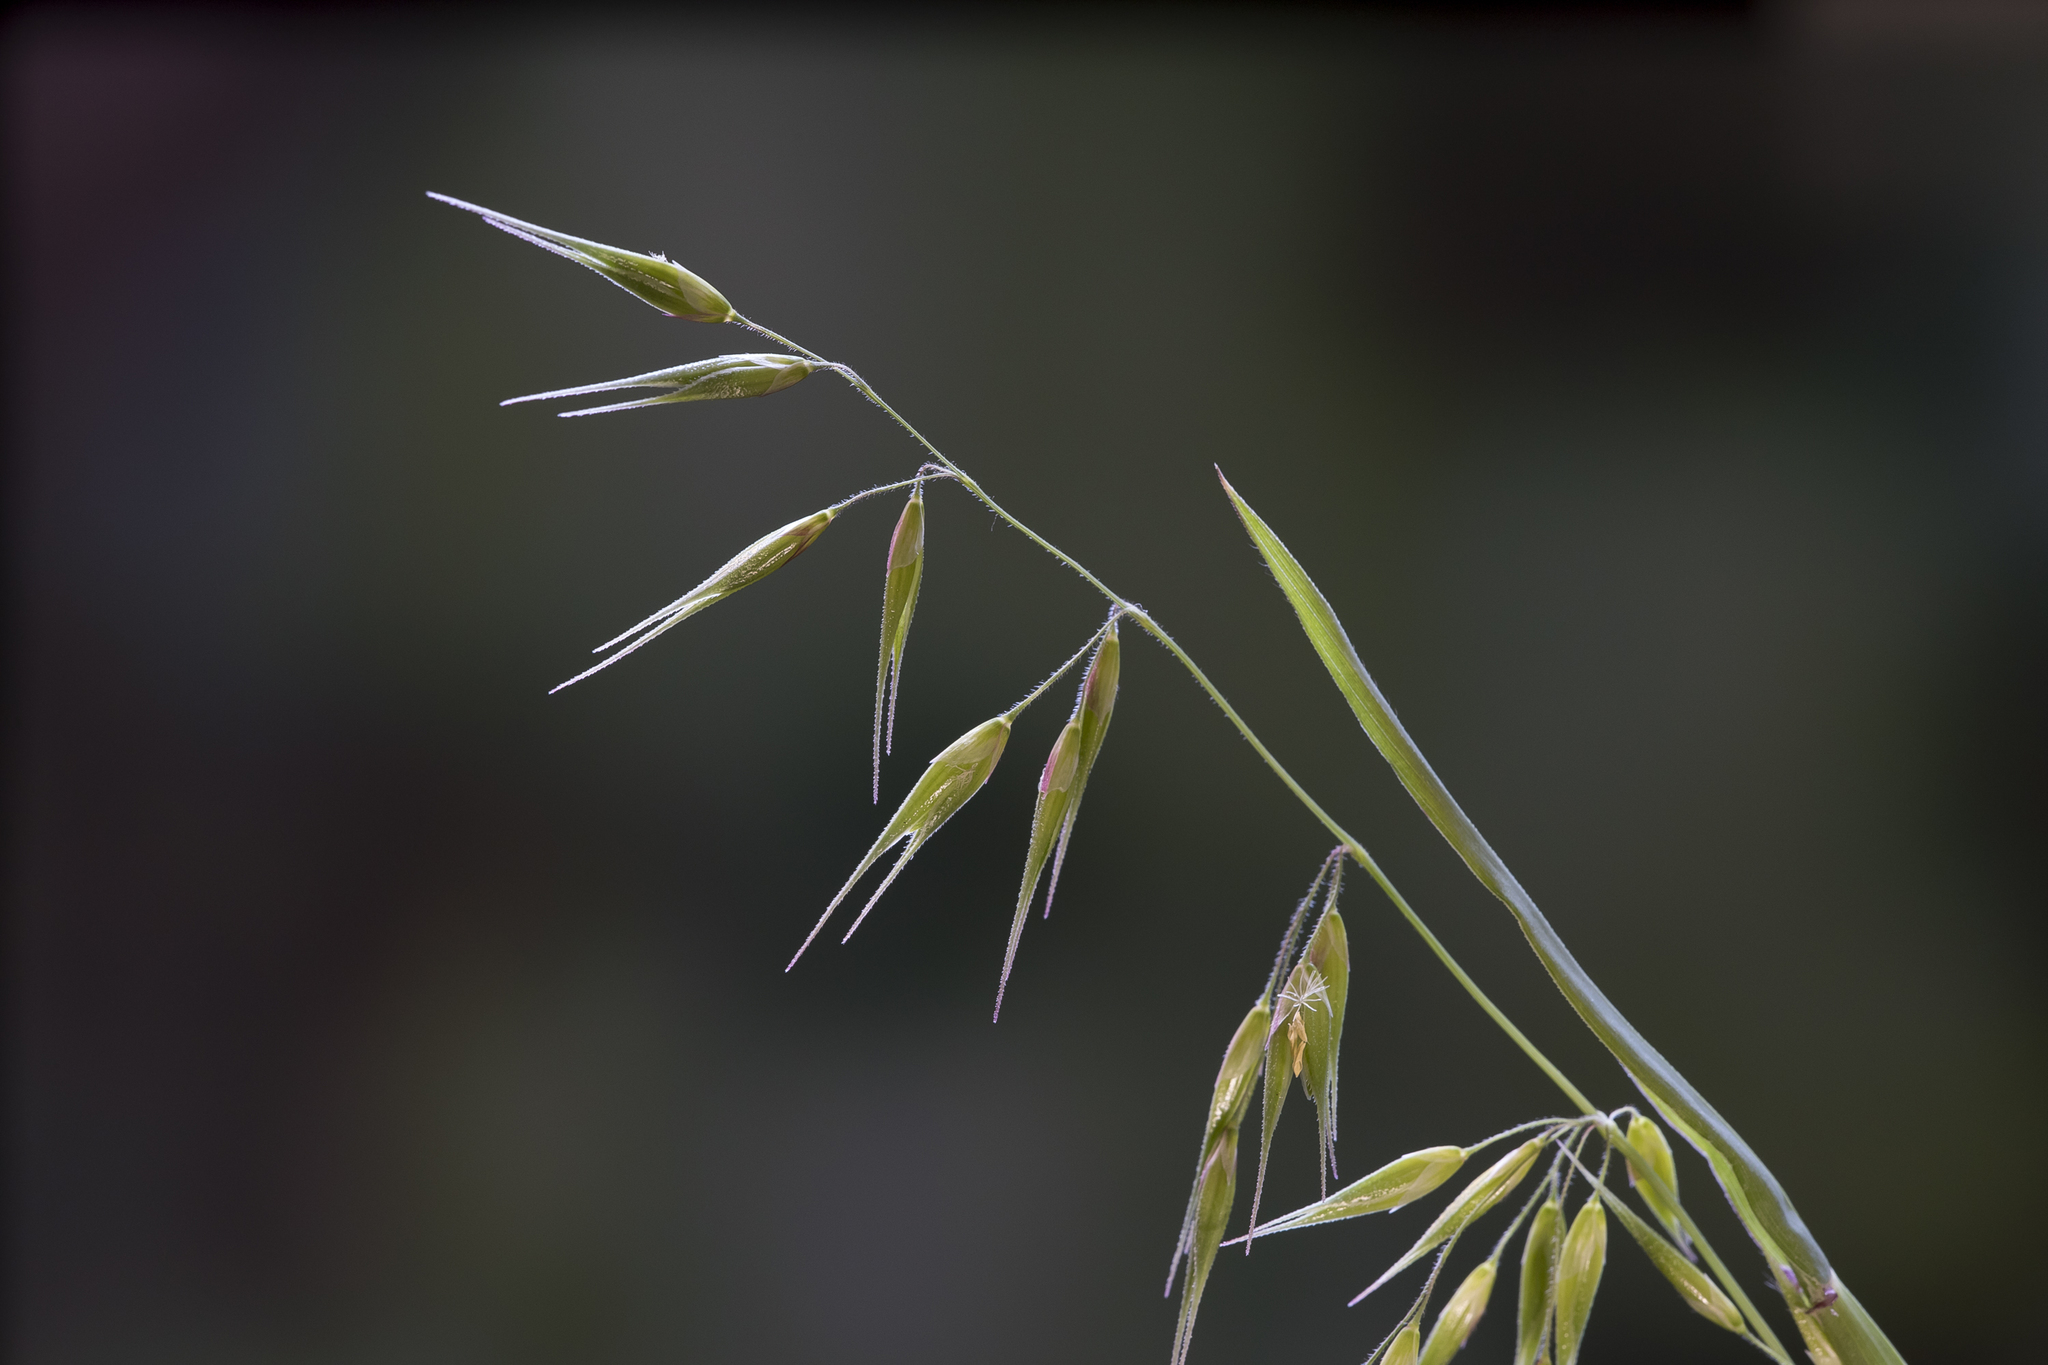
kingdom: Plantae
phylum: Tracheophyta
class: Liliopsida
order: Poales
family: Poaceae
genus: Ehrharta
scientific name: Ehrharta longiflora
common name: Longflowered veldtgrass
